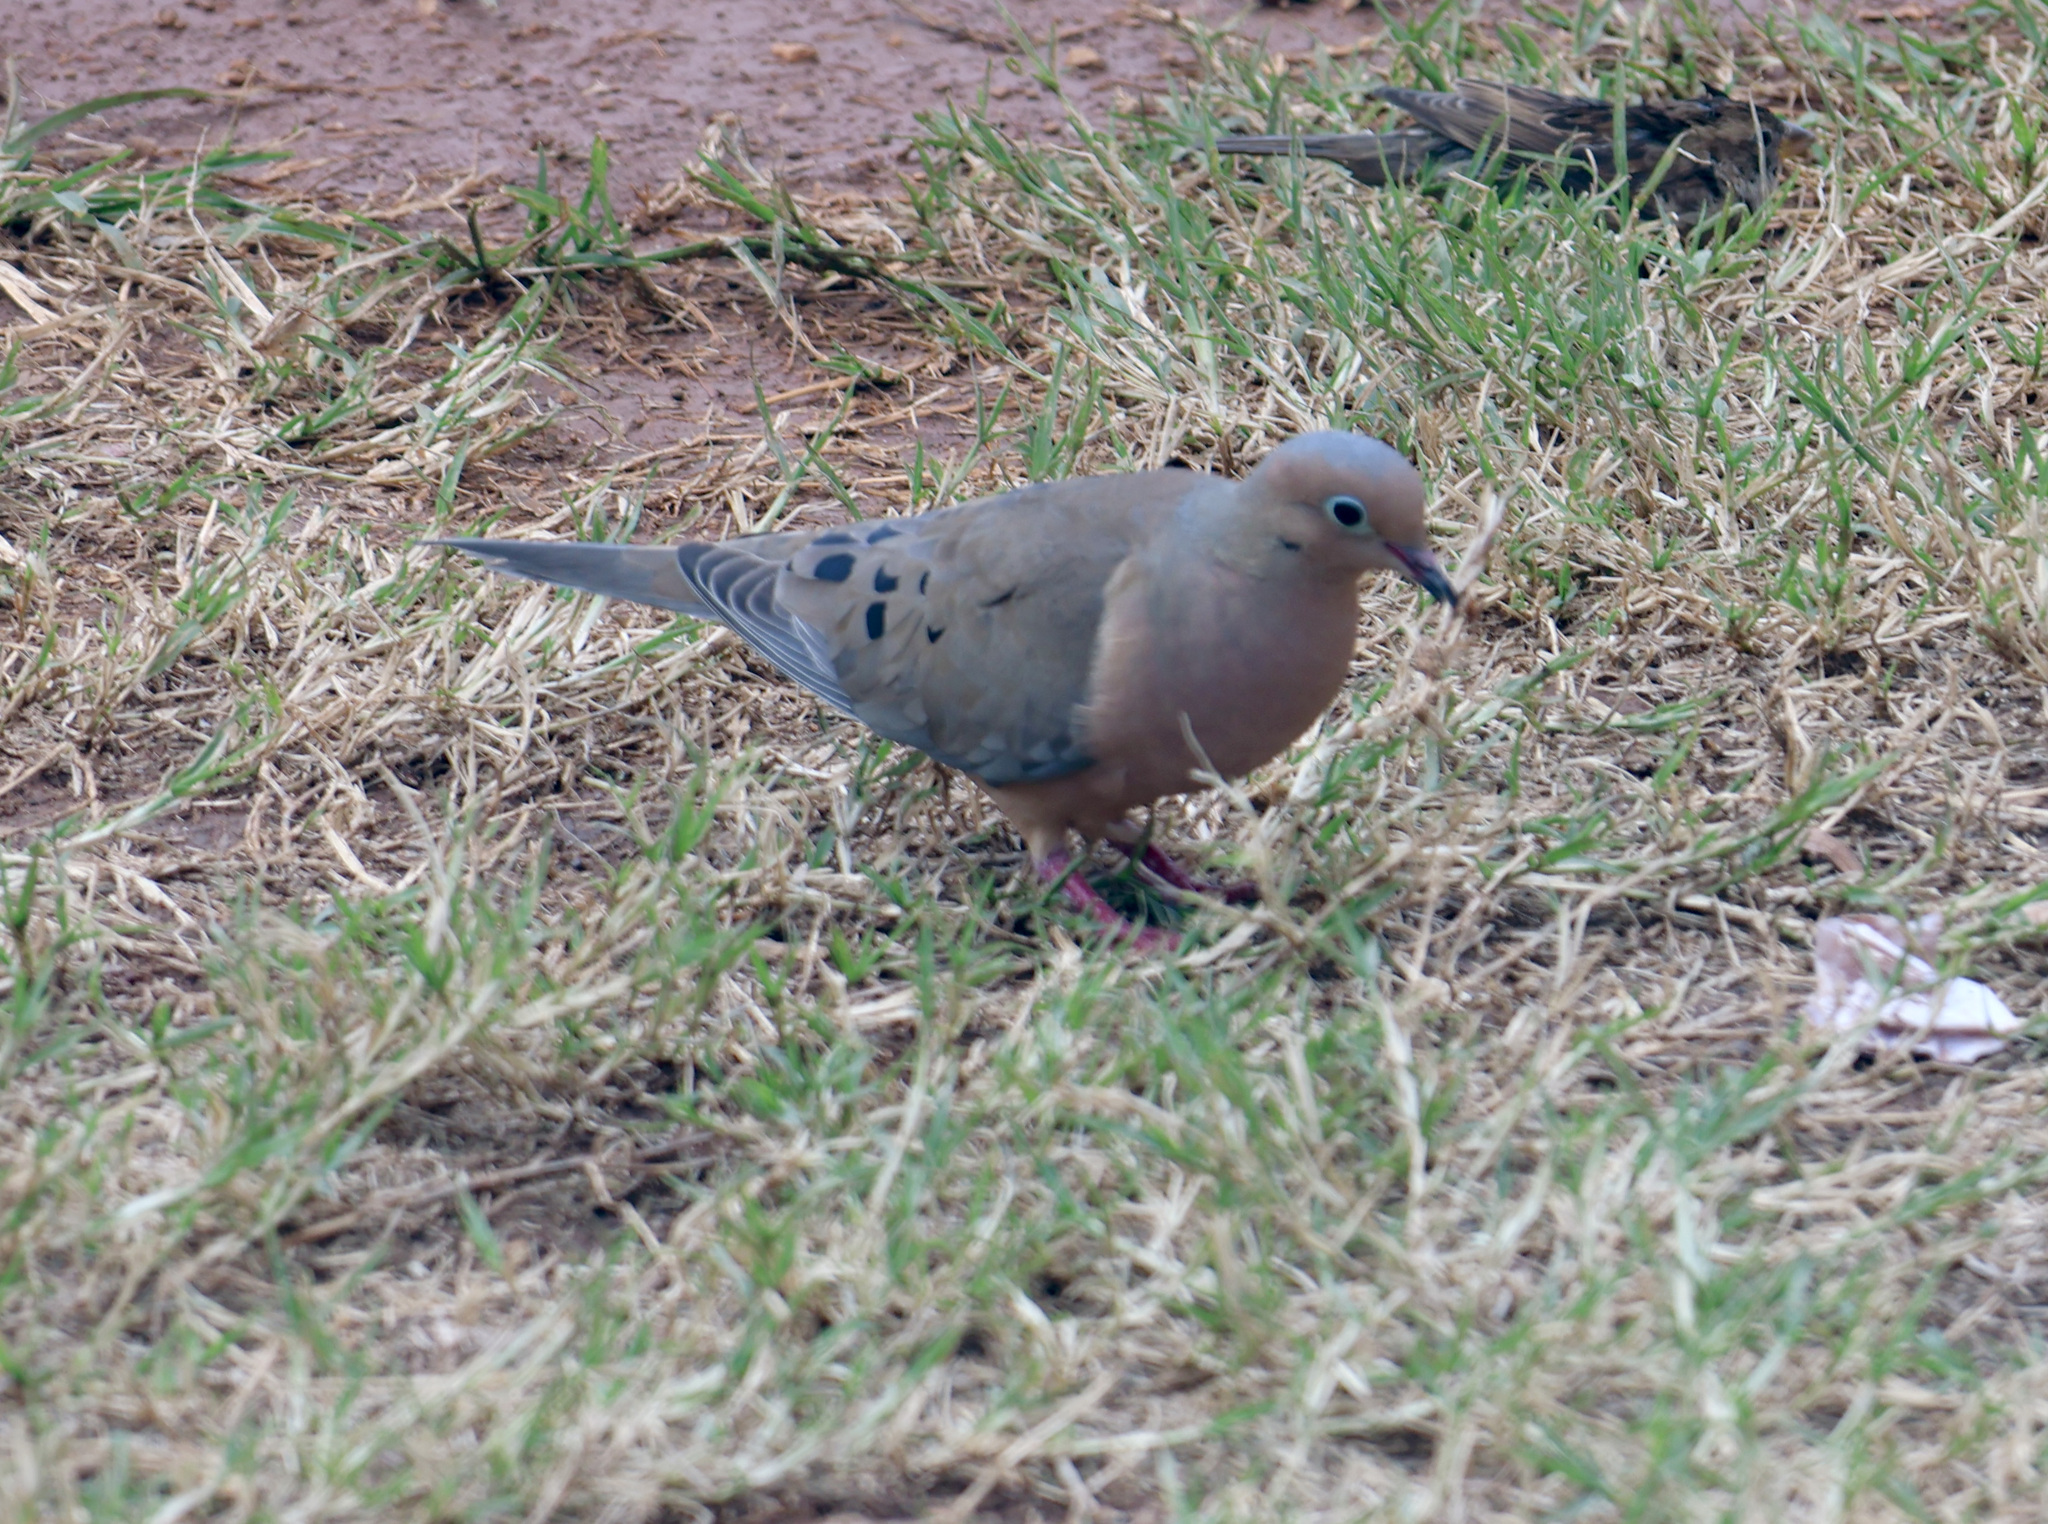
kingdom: Animalia
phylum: Chordata
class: Aves
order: Columbiformes
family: Columbidae
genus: Zenaida
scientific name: Zenaida macroura
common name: Mourning dove
